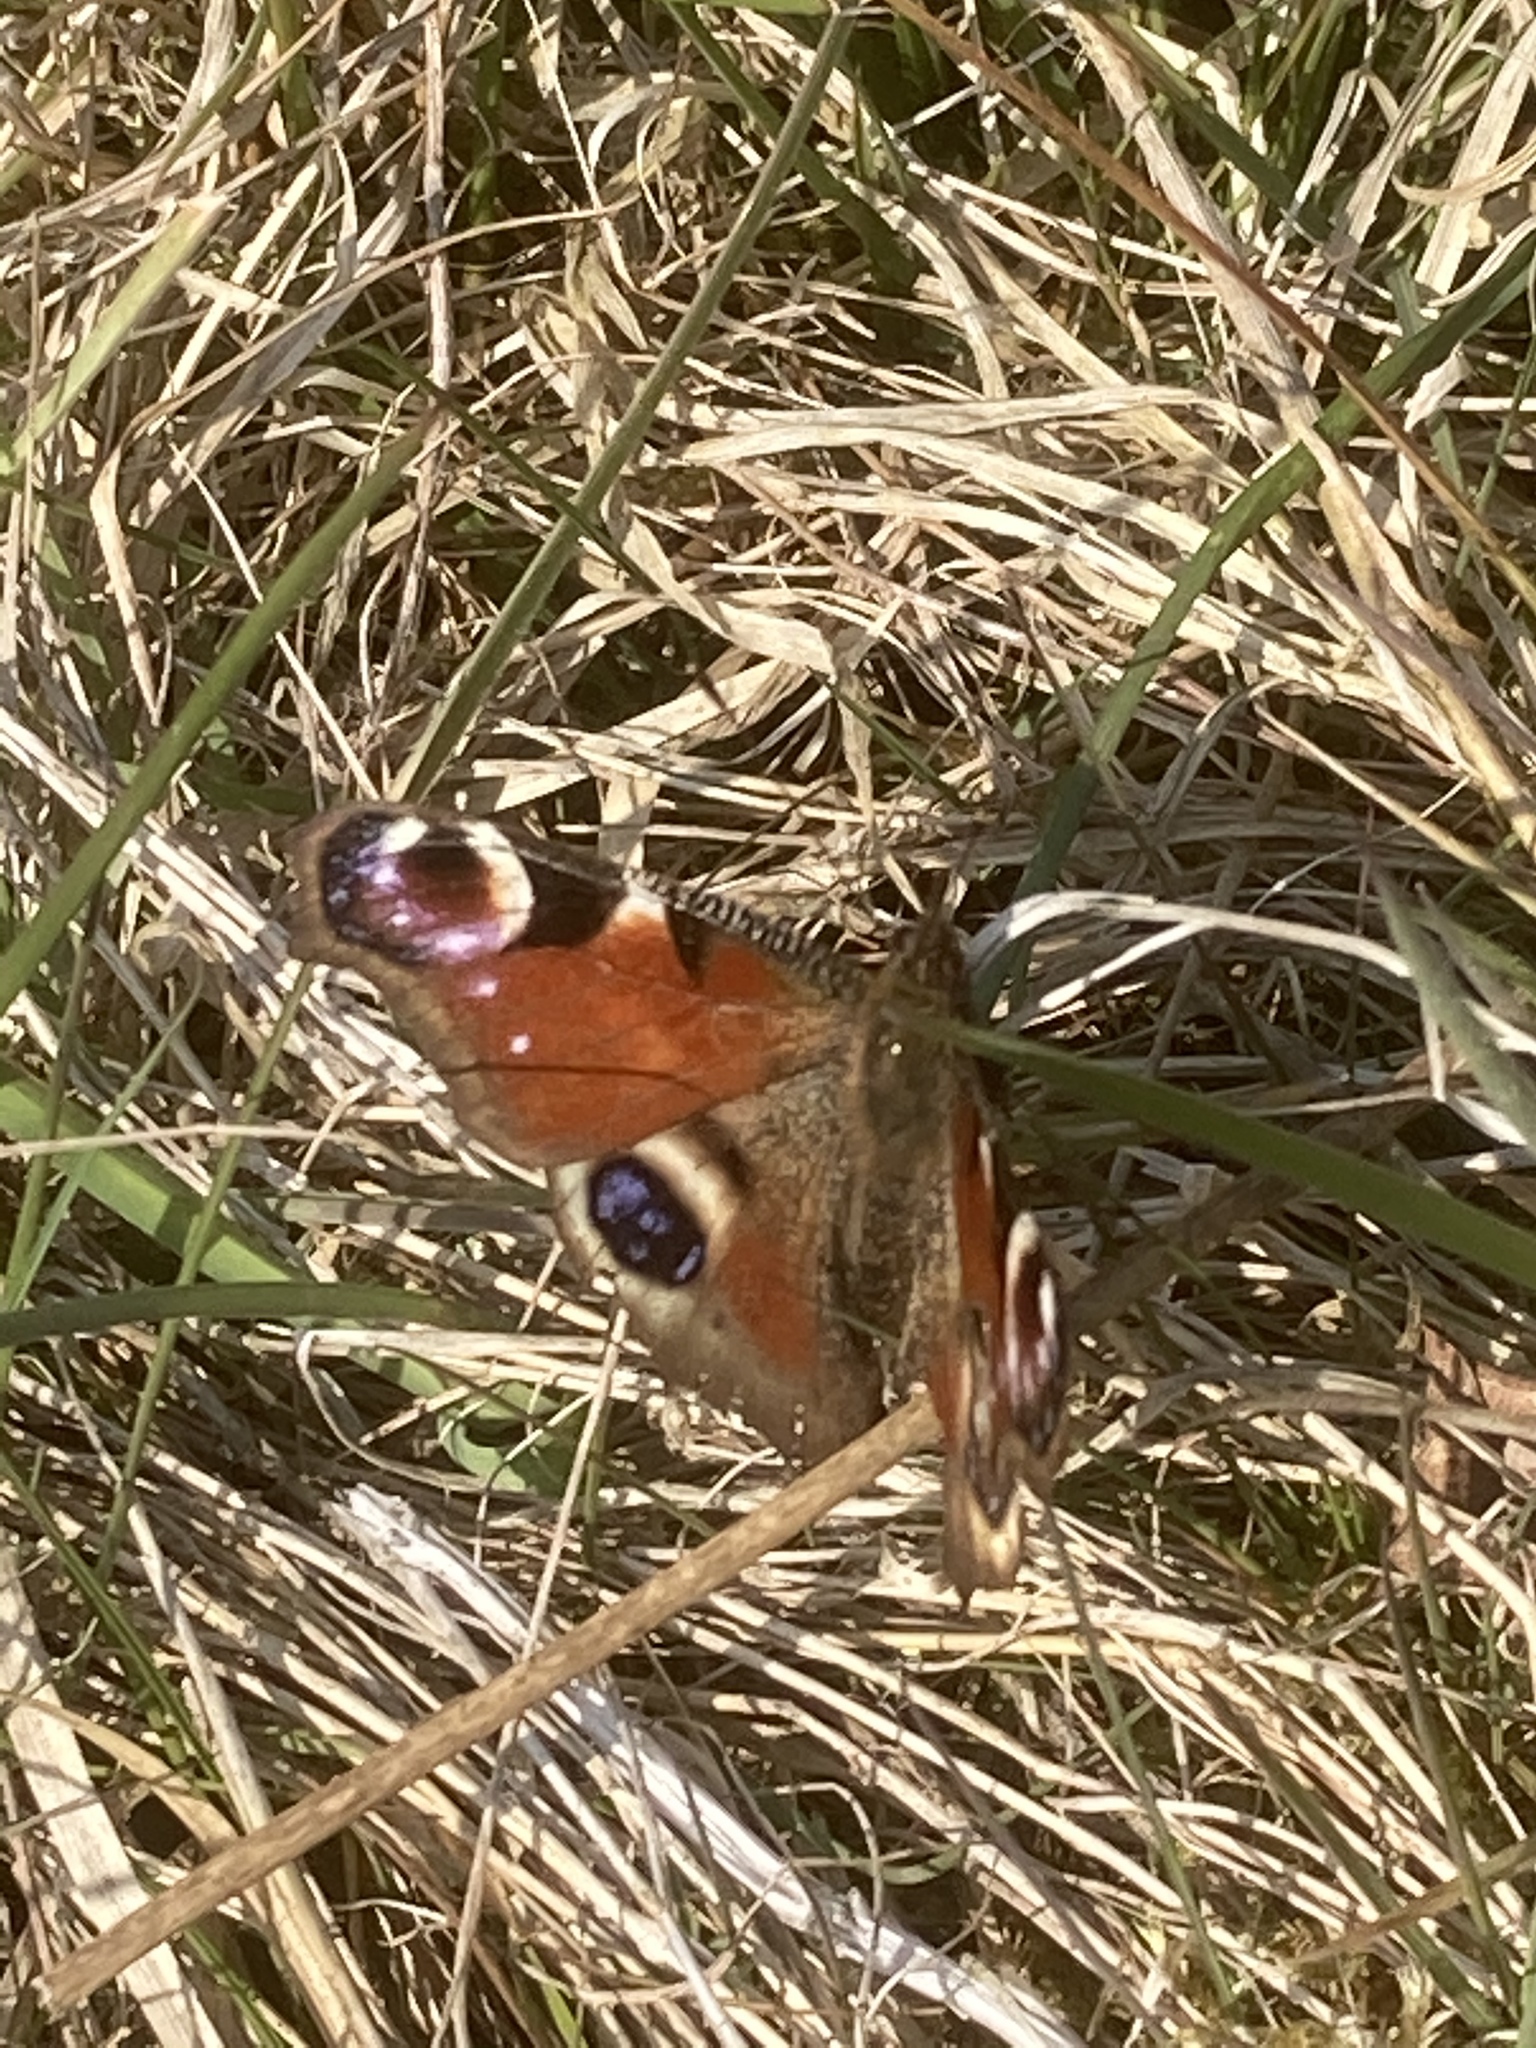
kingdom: Animalia
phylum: Arthropoda
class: Insecta
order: Lepidoptera
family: Nymphalidae
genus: Aglais
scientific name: Aglais io
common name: Peacock
